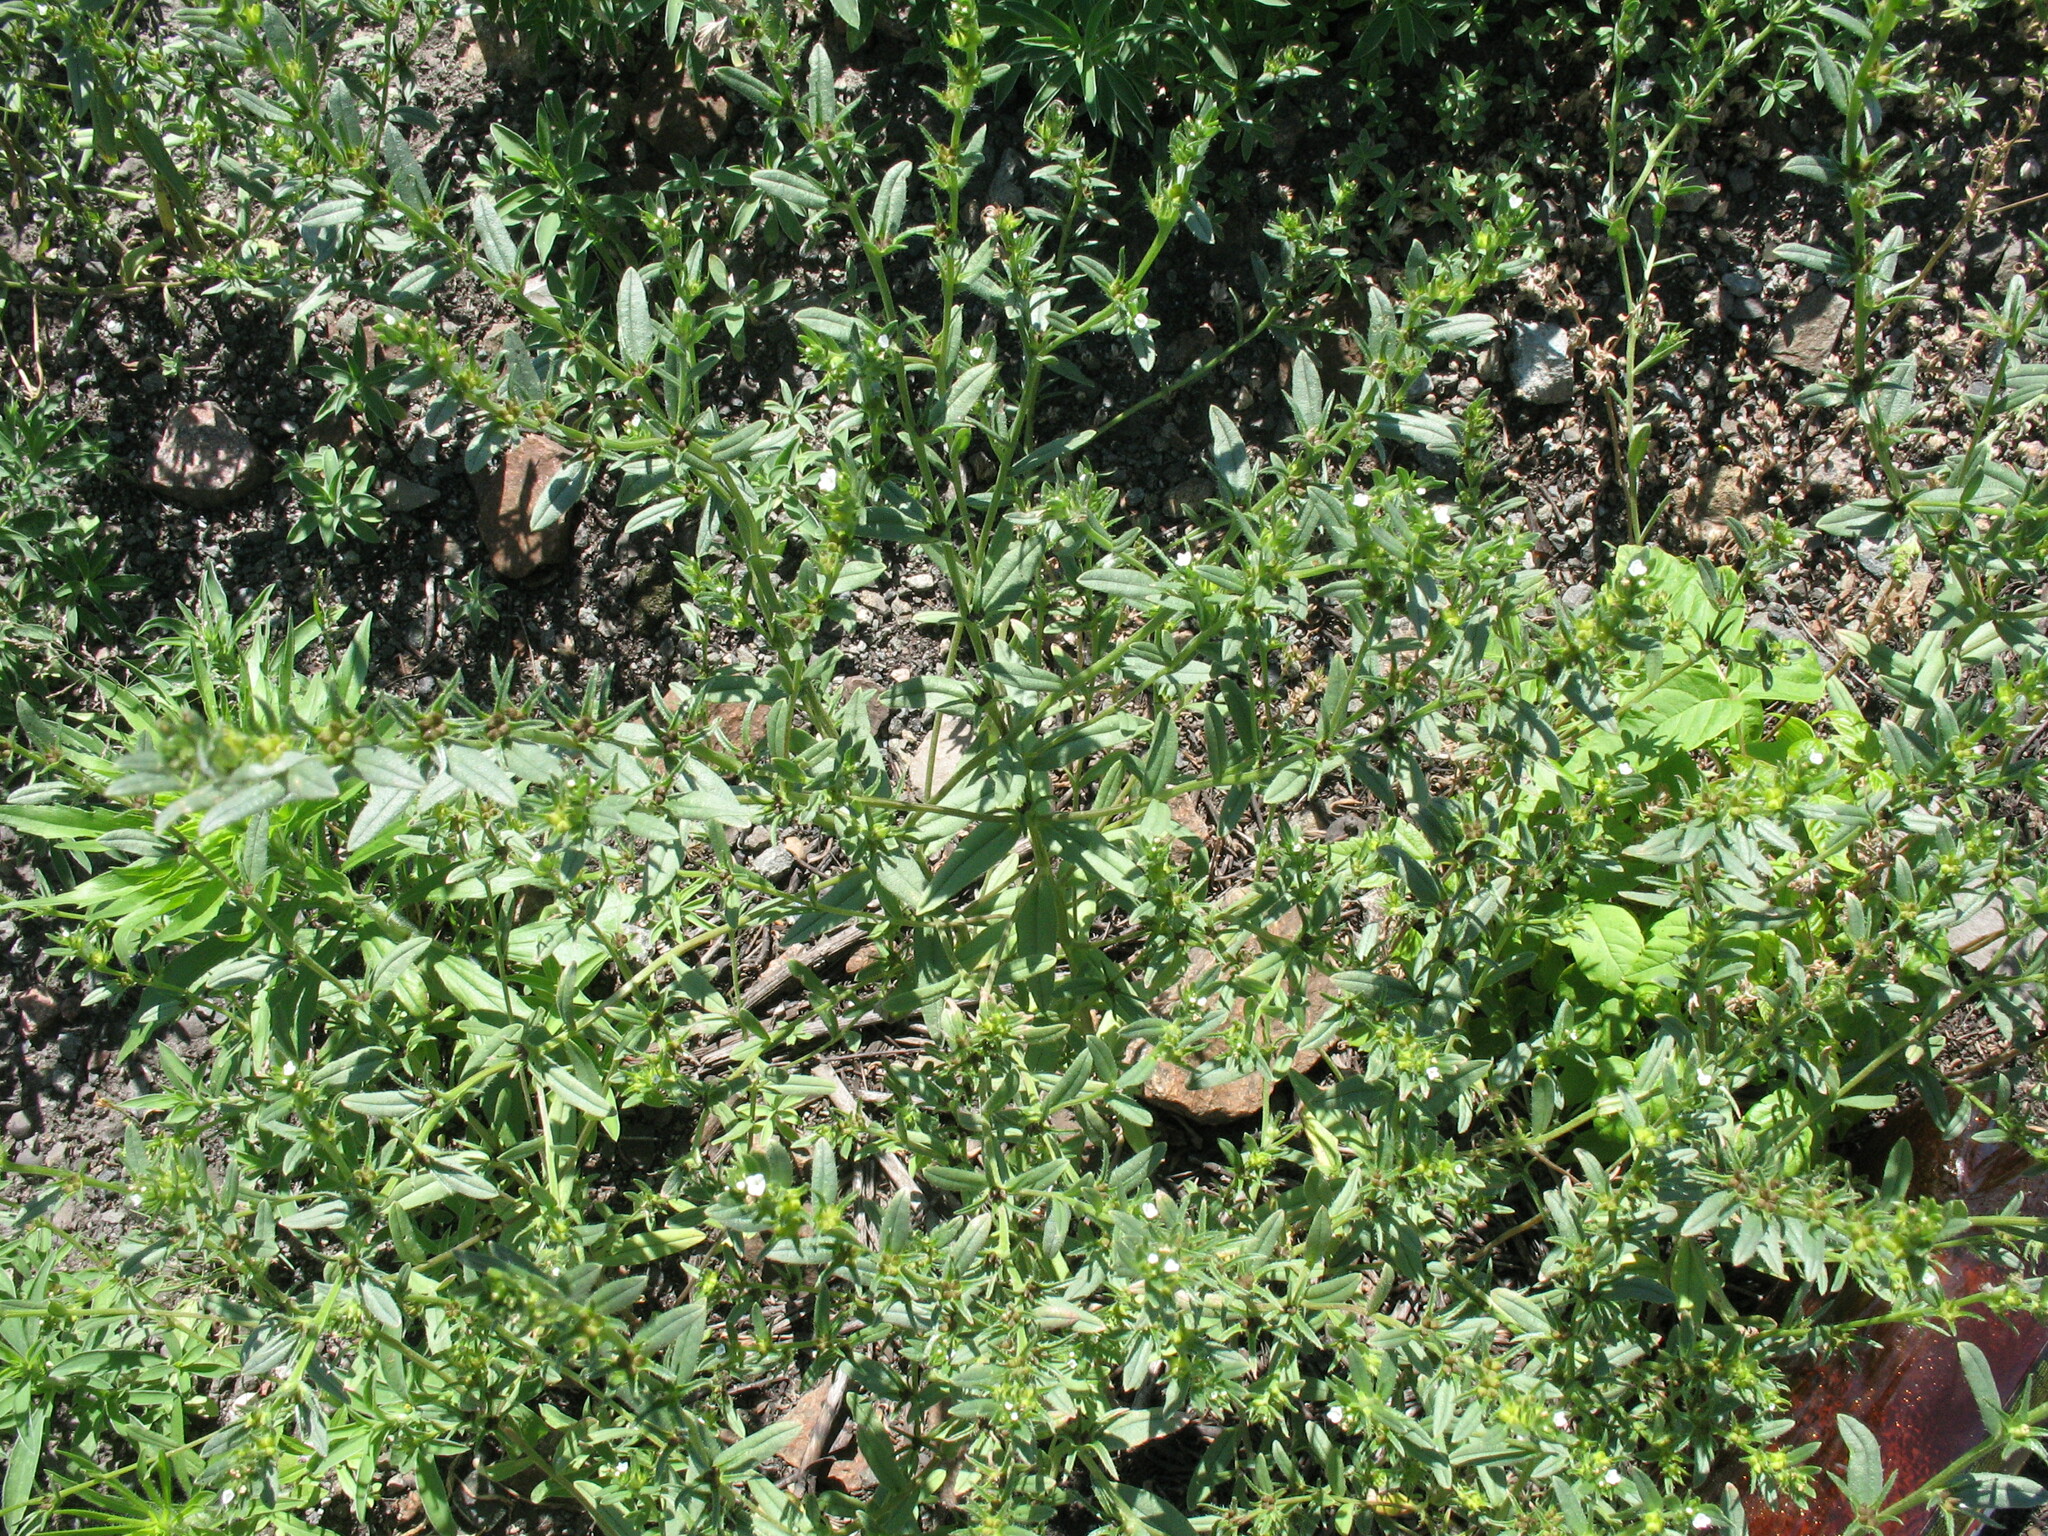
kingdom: Plantae
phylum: Tracheophyta
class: Magnoliopsida
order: Boraginales
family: Boraginaceae
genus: Buglossoides
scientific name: Buglossoides arvensis
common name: Corn gromwell
